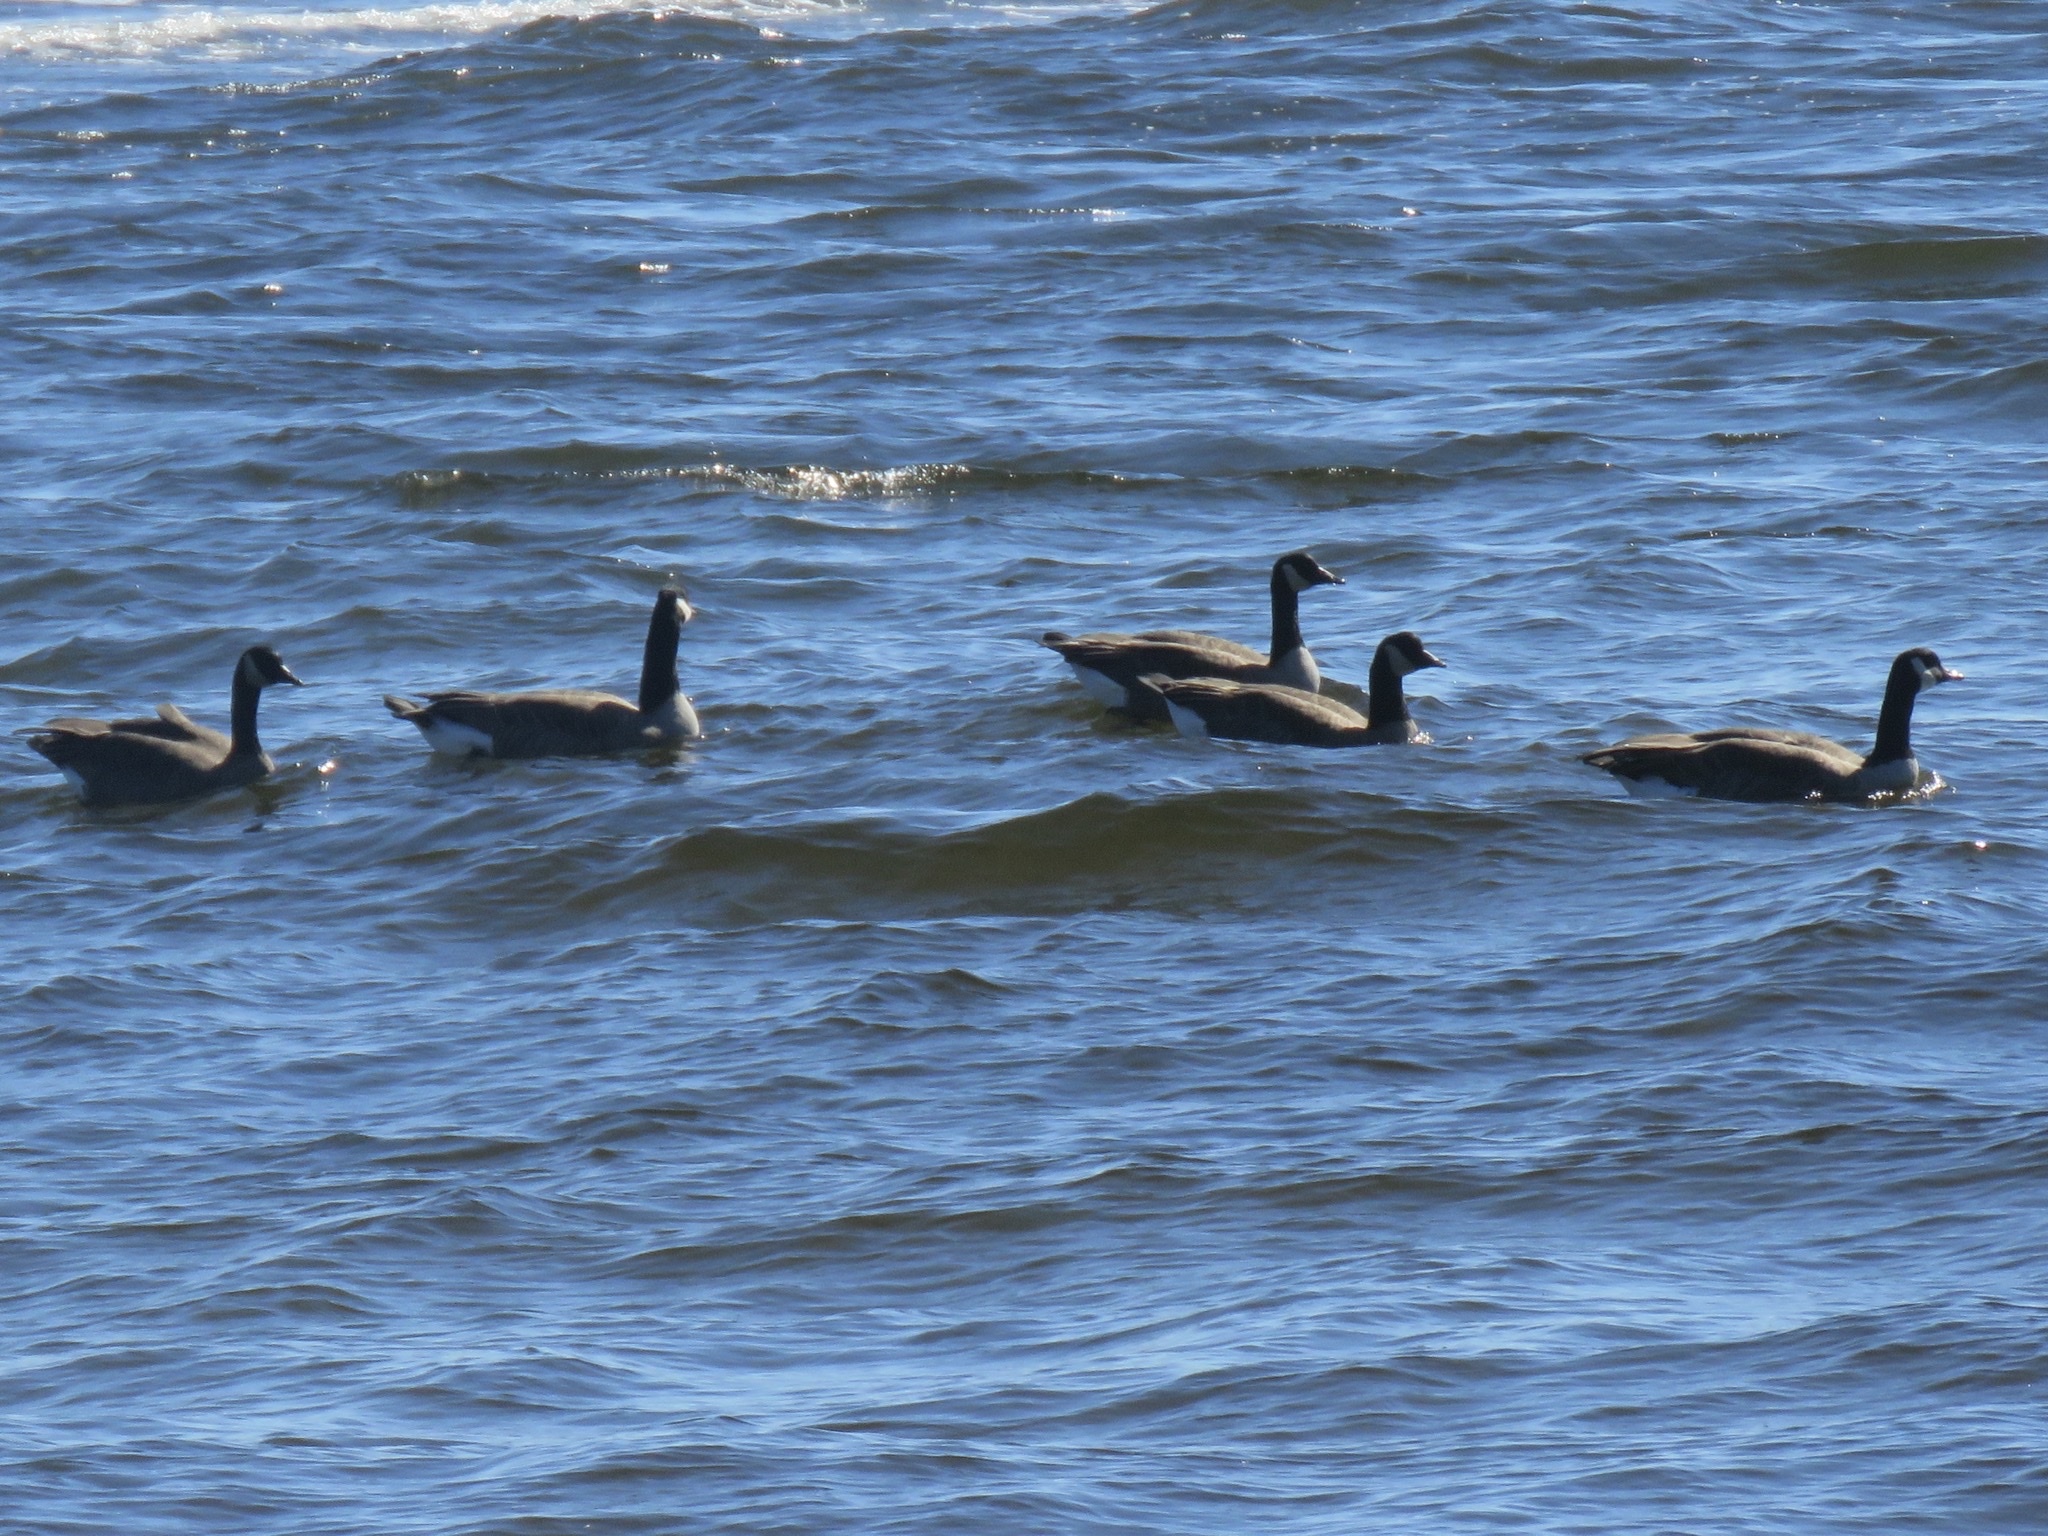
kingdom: Animalia
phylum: Chordata
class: Aves
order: Anseriformes
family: Anatidae
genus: Branta
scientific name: Branta canadensis
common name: Canada goose
